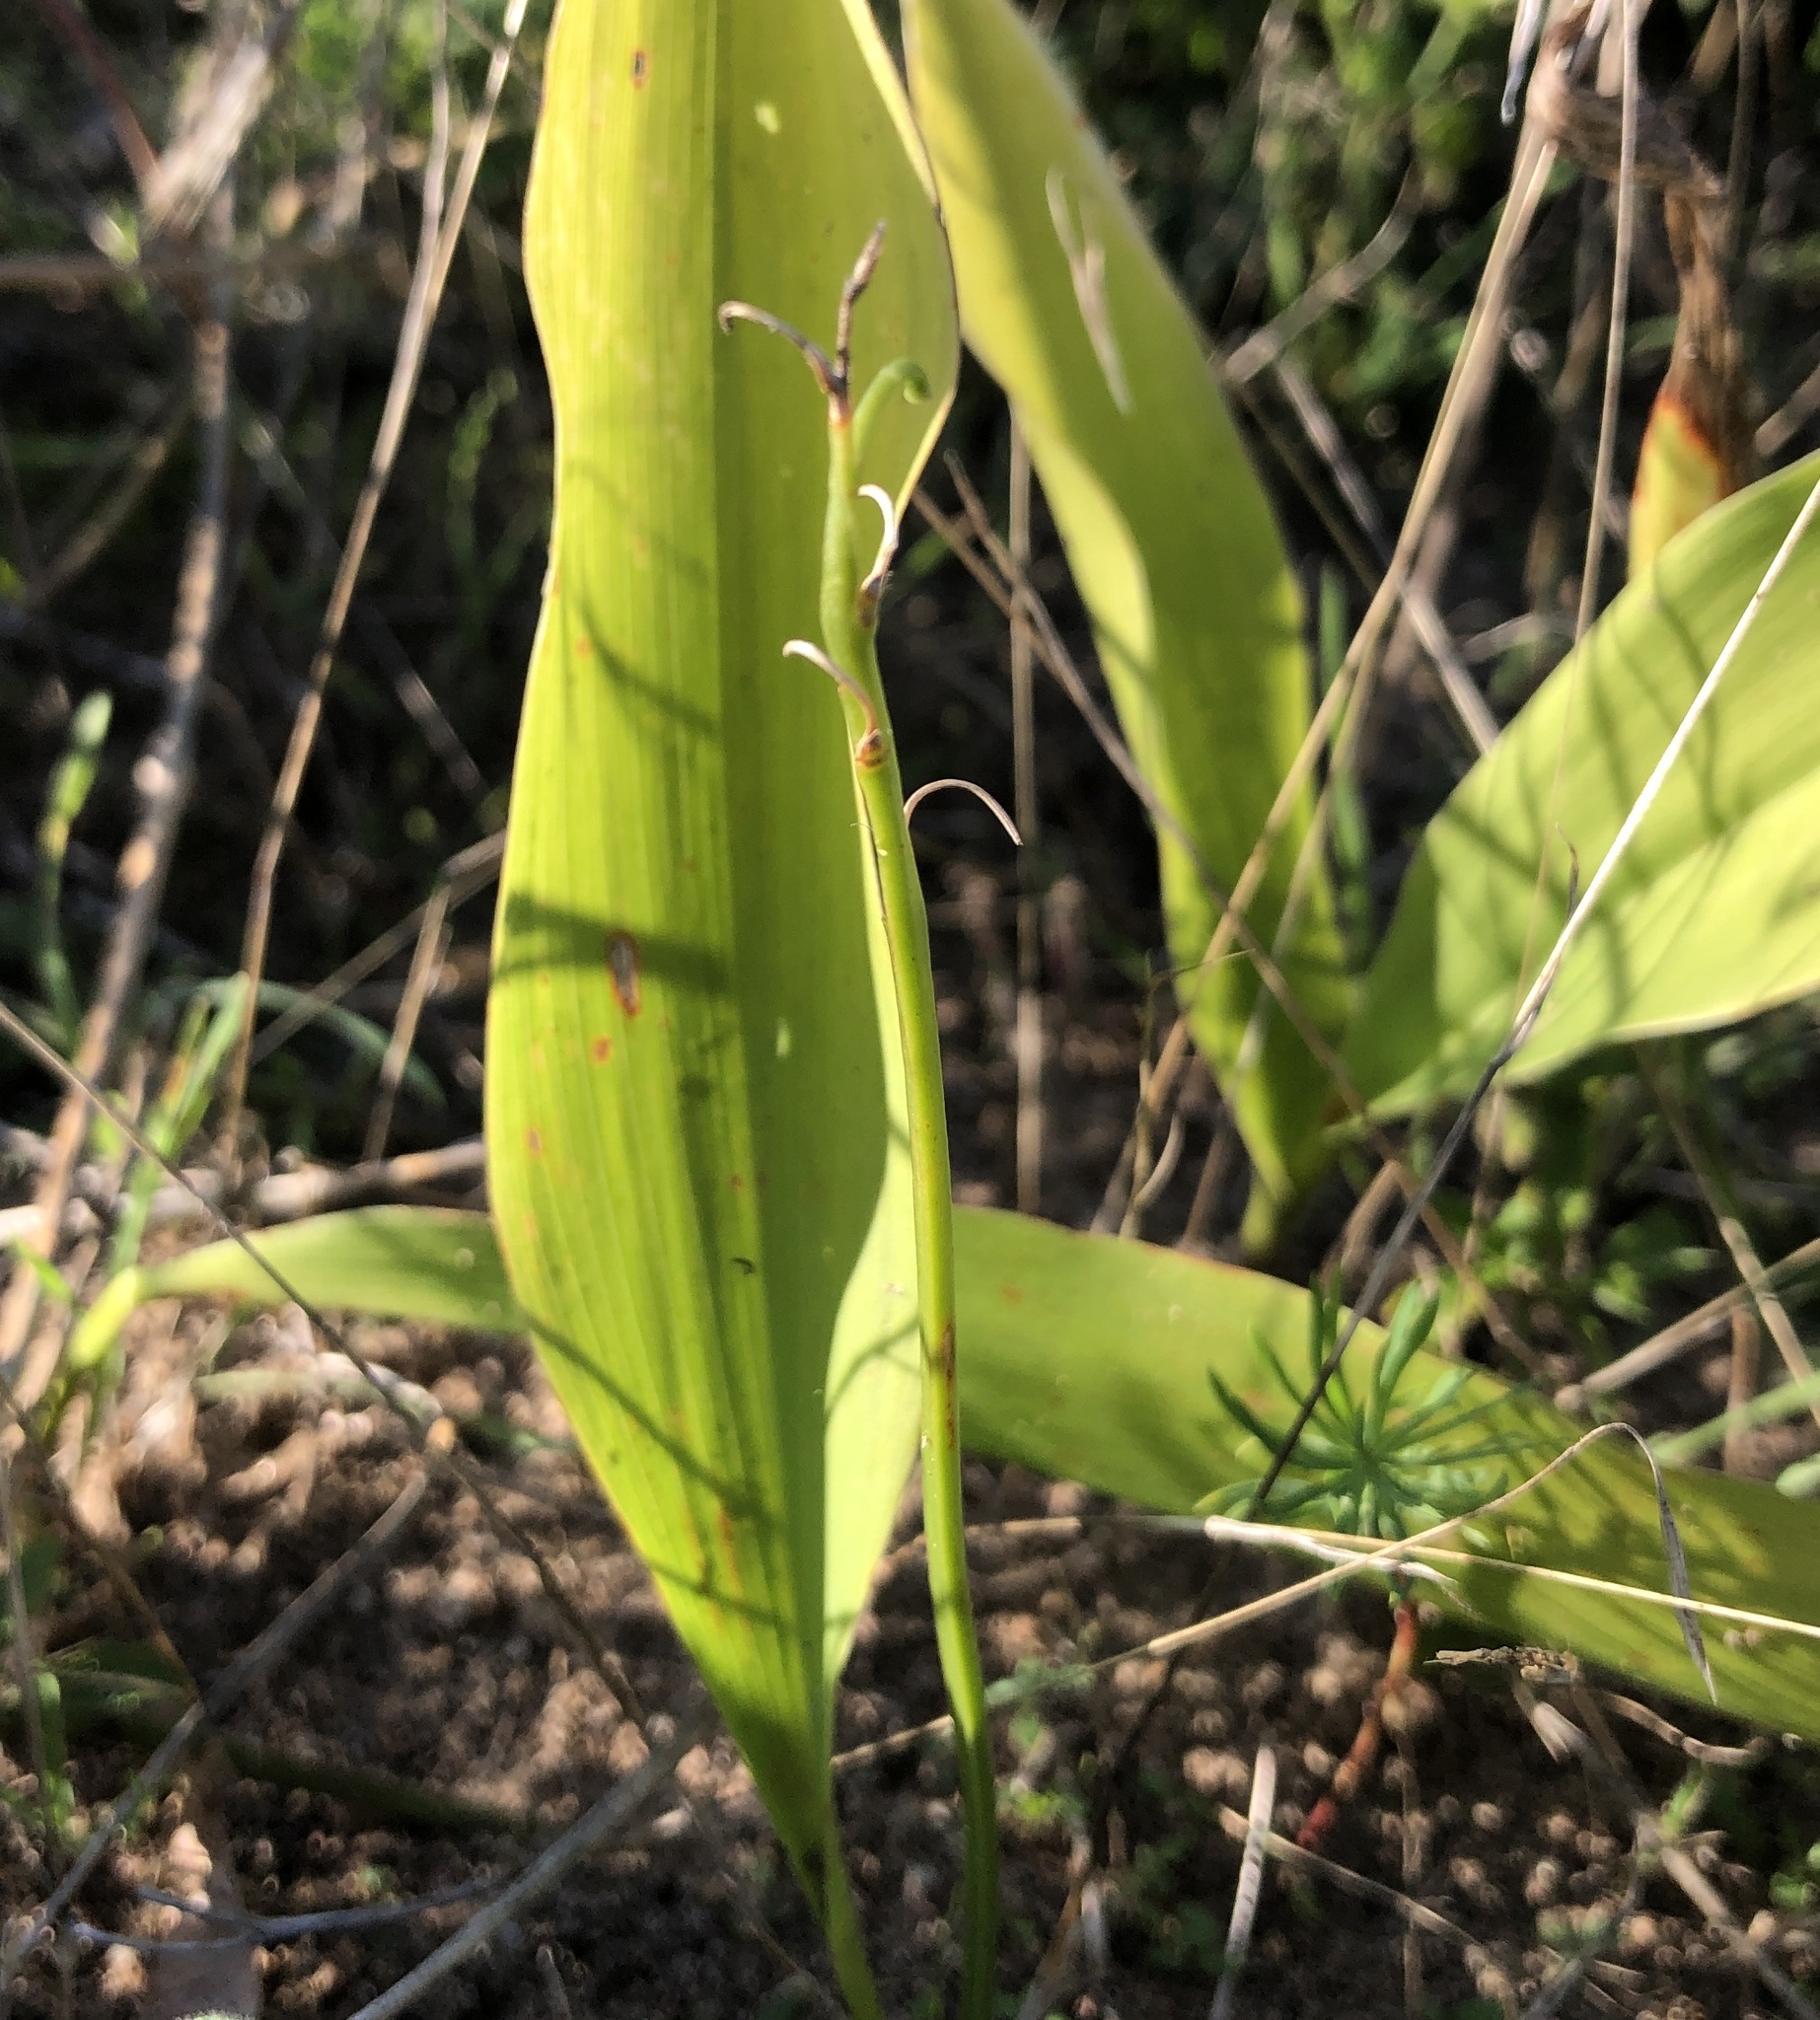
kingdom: Plantae
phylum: Tracheophyta
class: Liliopsida
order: Asparagales
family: Asparagaceae
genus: Convallaria
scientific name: Convallaria majalis
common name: Lily-of-the-valley
